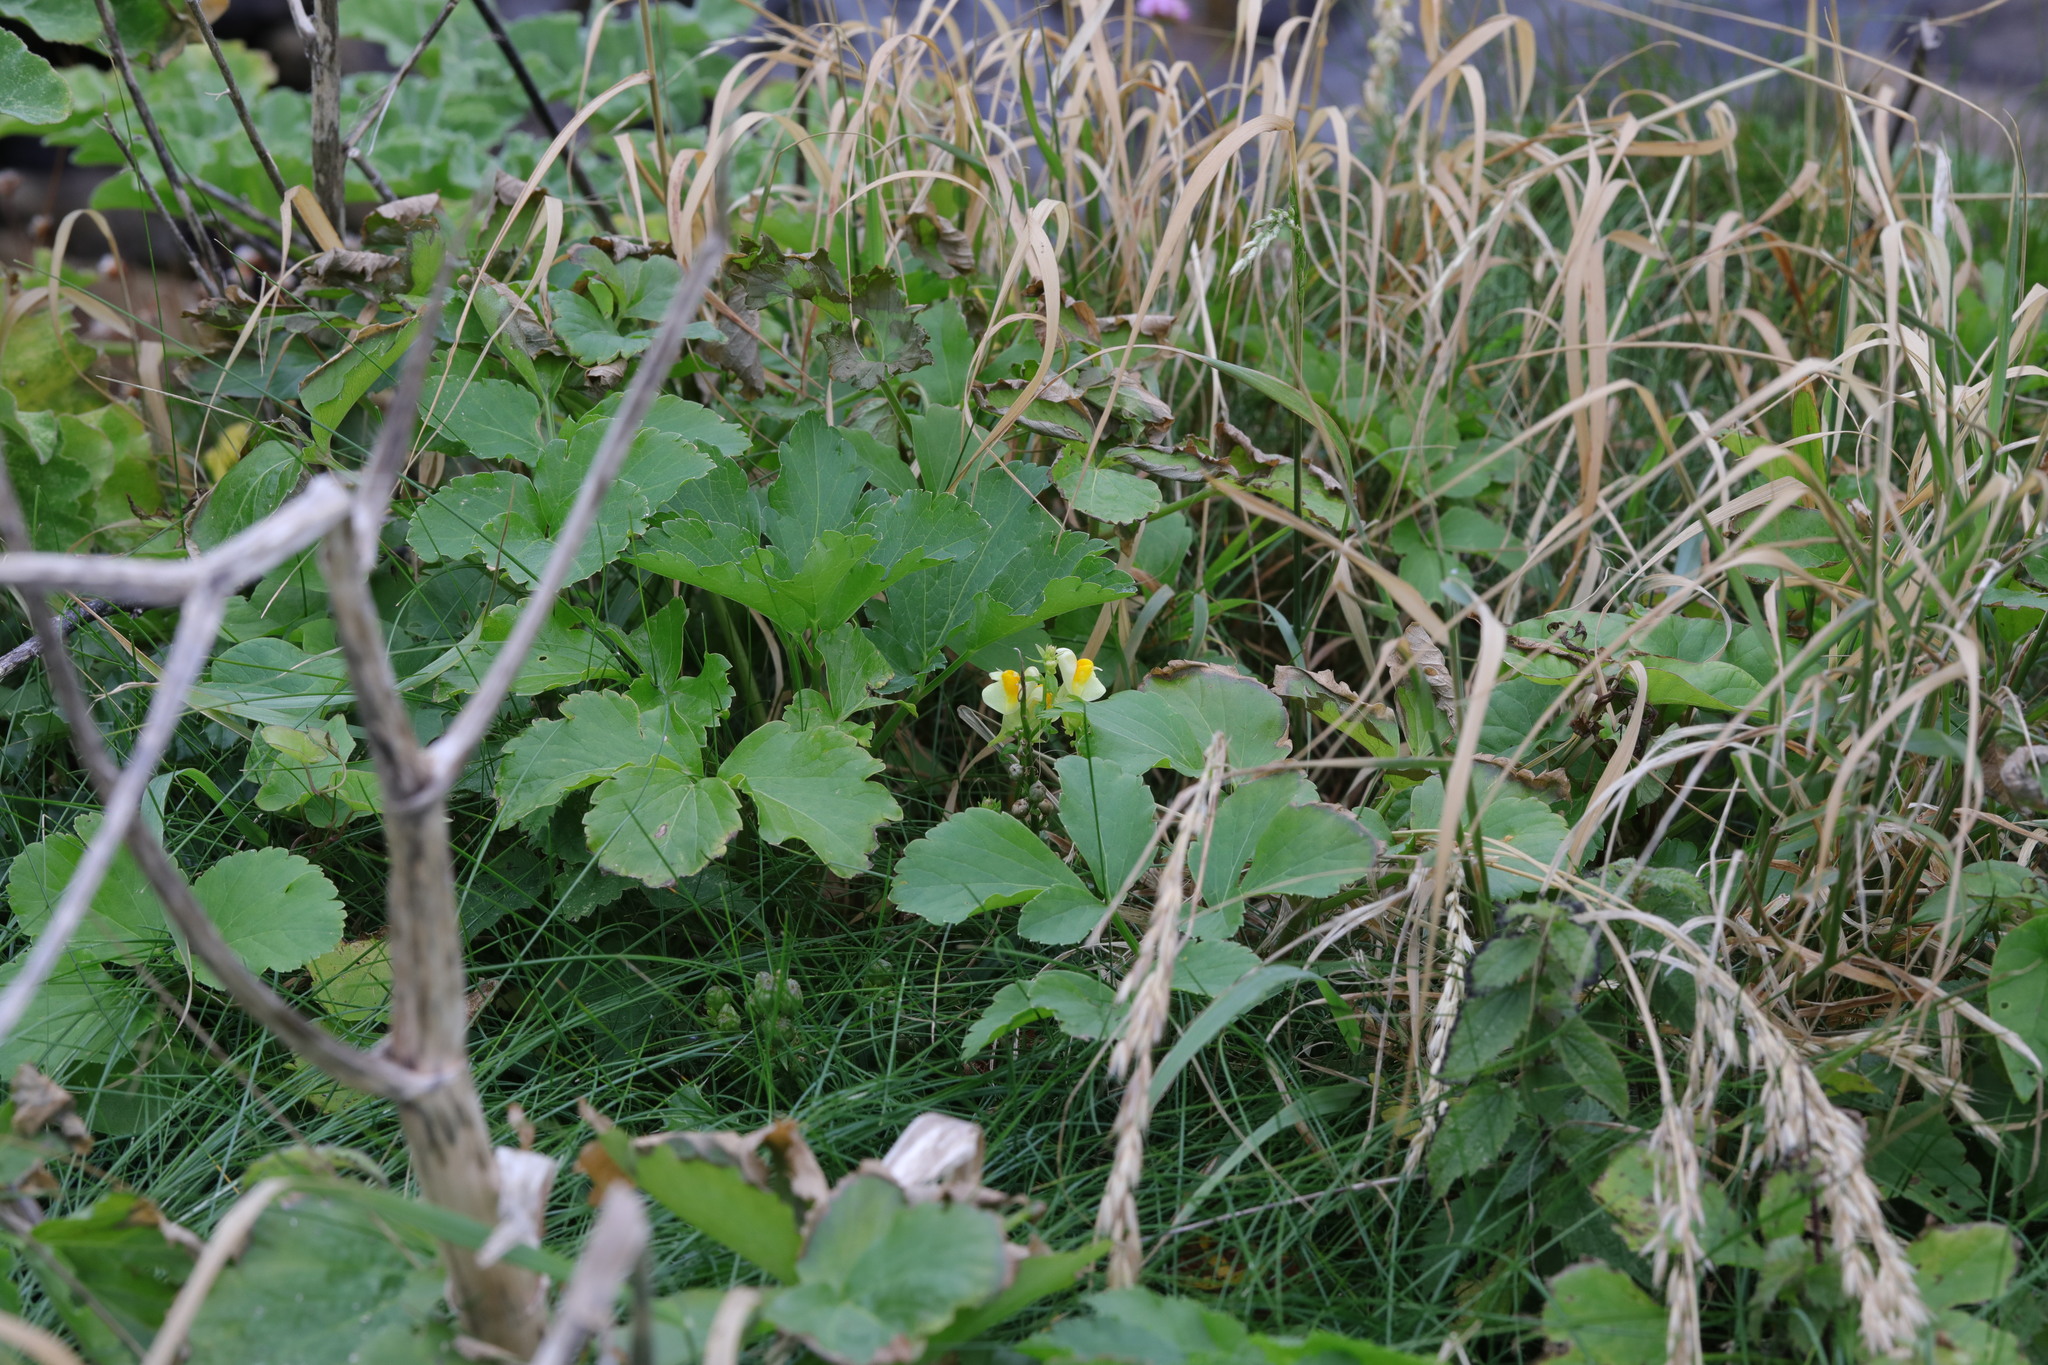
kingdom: Plantae
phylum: Tracheophyta
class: Magnoliopsida
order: Lamiales
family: Plantaginaceae
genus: Linaria
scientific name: Linaria vulgaris
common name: Butter and eggs
